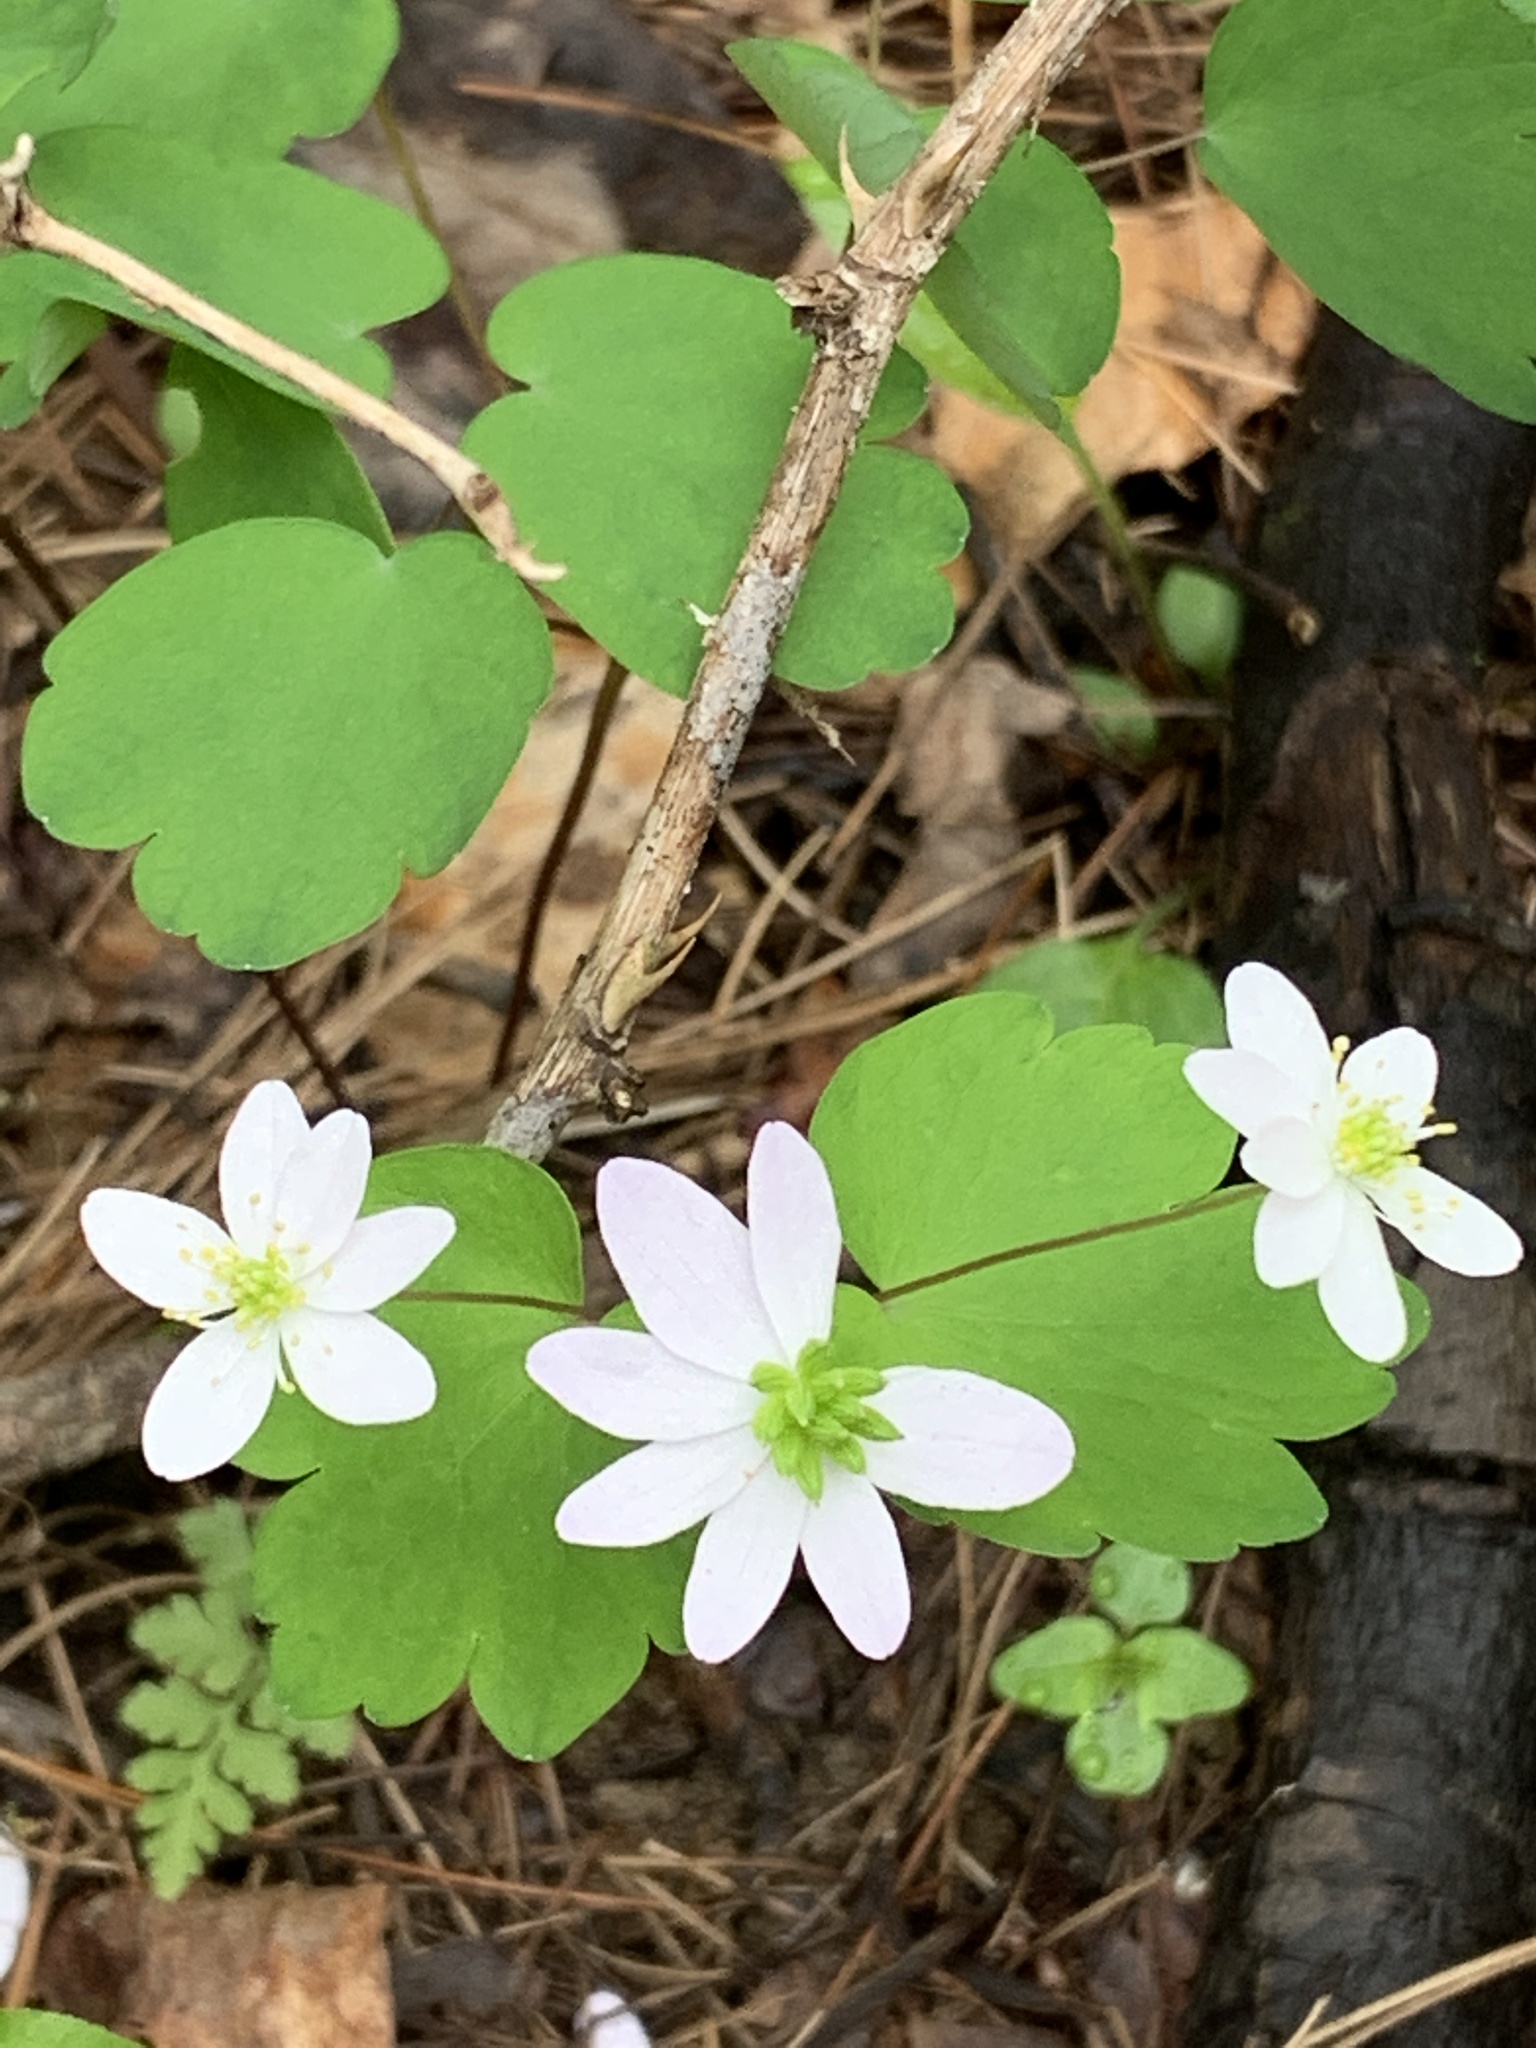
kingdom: Plantae
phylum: Tracheophyta
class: Magnoliopsida
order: Ranunculales
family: Ranunculaceae
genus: Thalictrum
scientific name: Thalictrum thalictroides
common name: Rue-anemone
